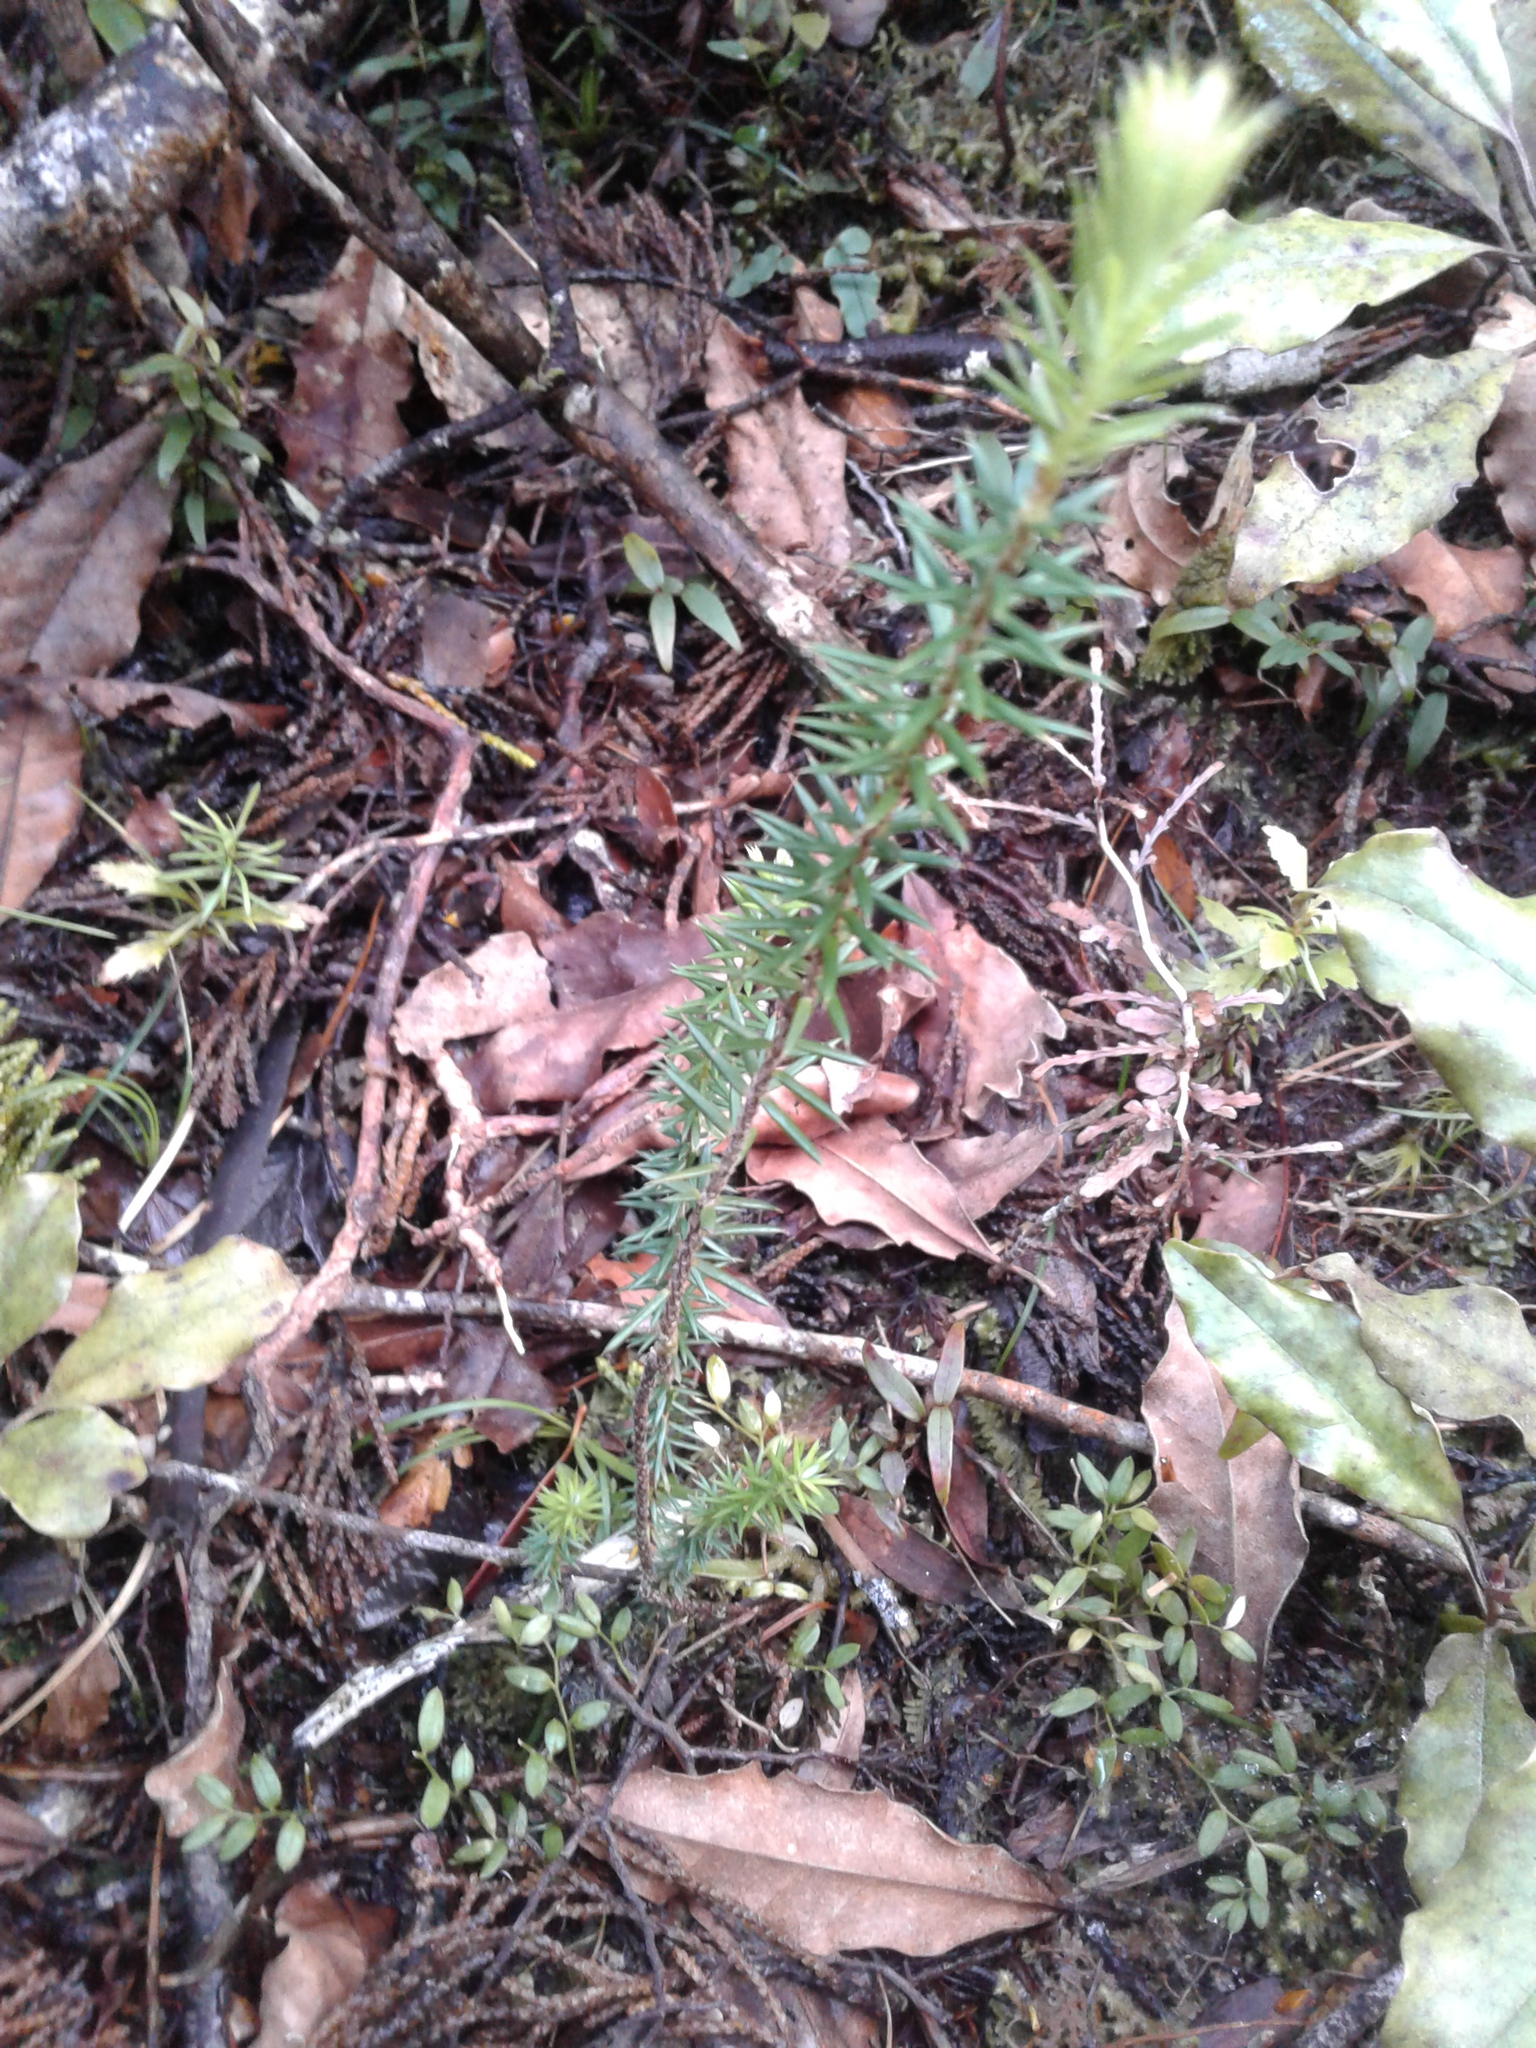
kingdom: Plantae
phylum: Tracheophyta
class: Magnoliopsida
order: Ericales
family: Ericaceae
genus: Leptecophylla
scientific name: Leptecophylla juniperina
